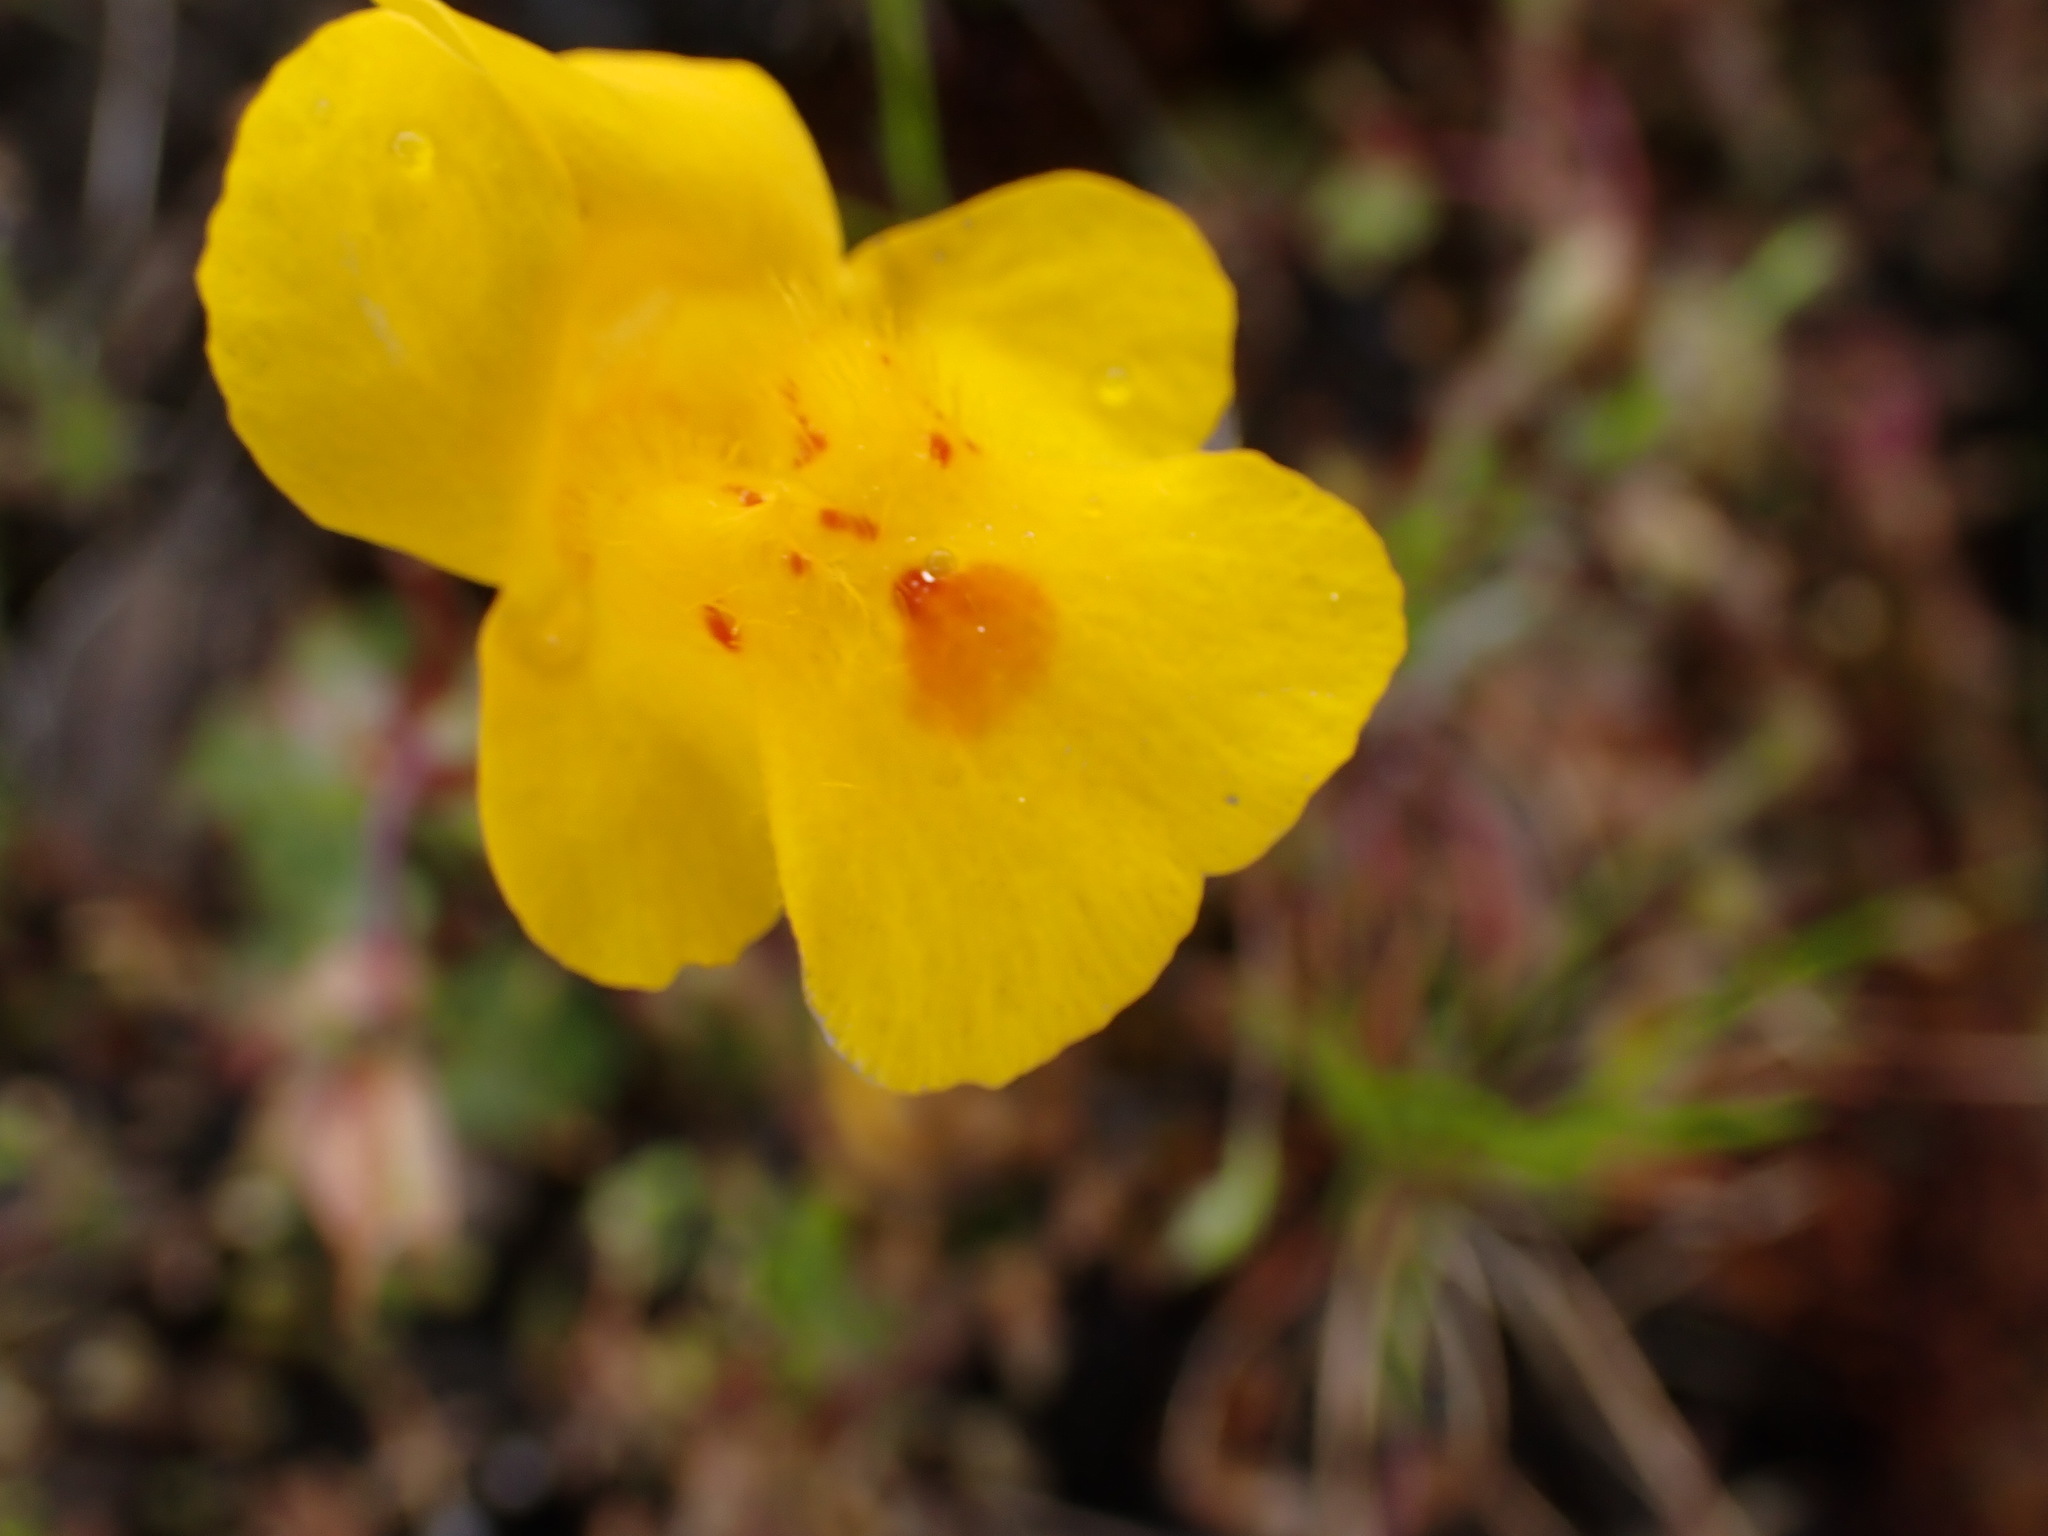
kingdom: Plantae
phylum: Tracheophyta
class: Magnoliopsida
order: Lamiales
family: Phrymaceae
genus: Erythranthe
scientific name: Erythranthe guttata
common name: Monkeyflower
